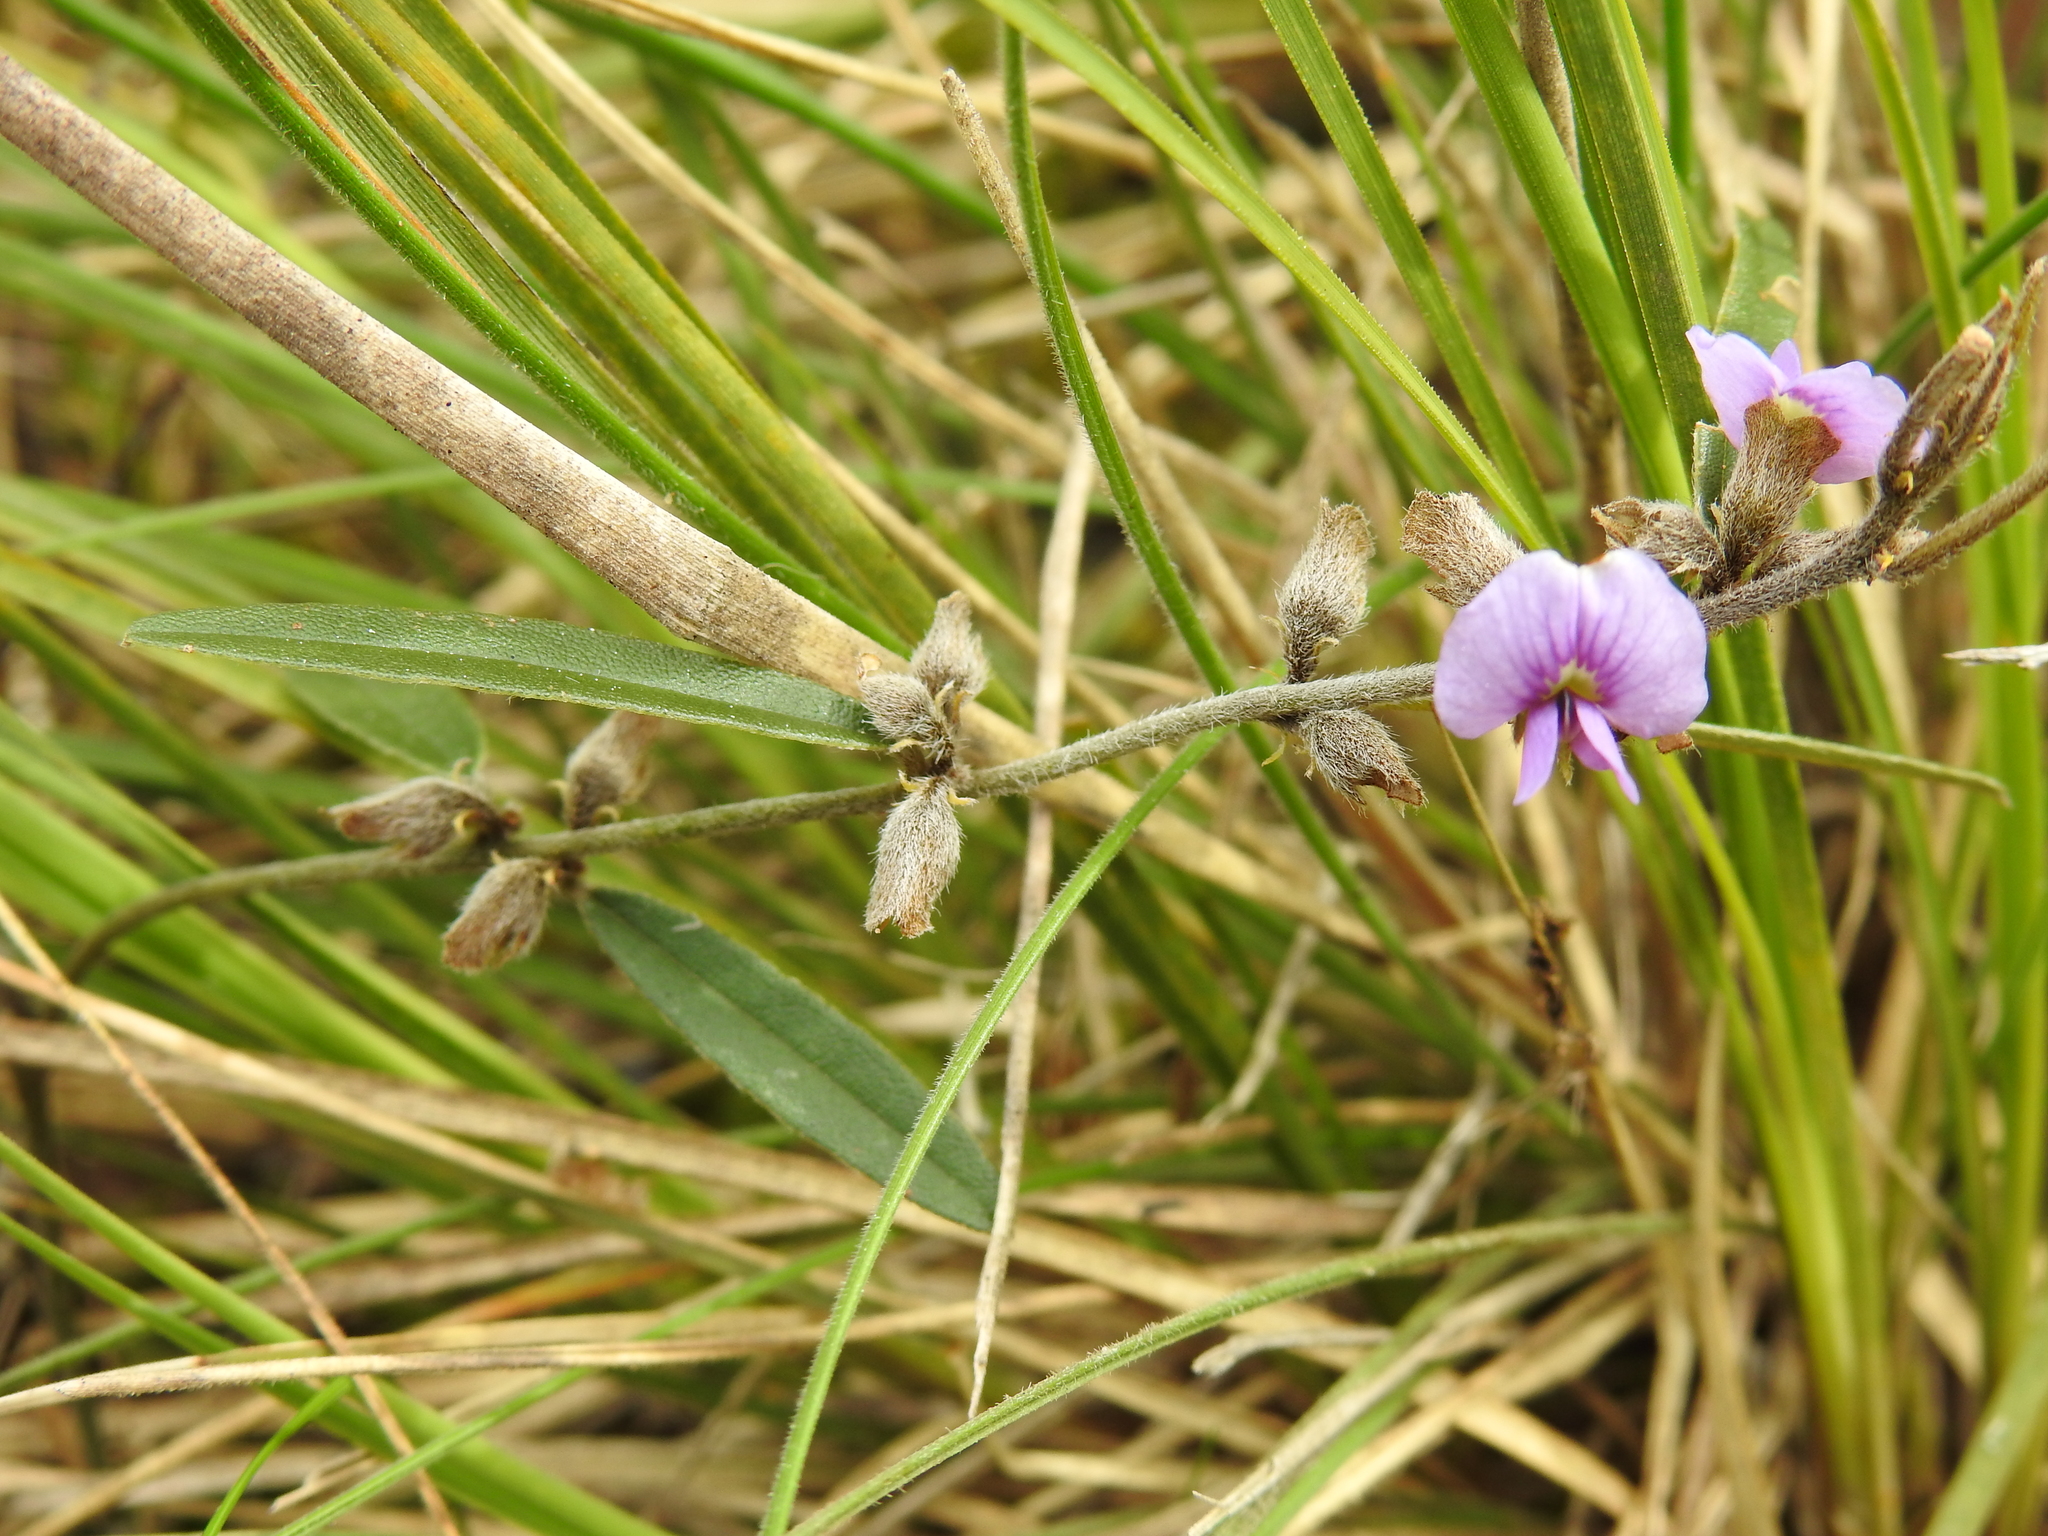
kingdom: Plantae
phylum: Tracheophyta
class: Magnoliopsida
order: Fabales
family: Fabaceae
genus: Hovea
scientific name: Hovea heterophylla
